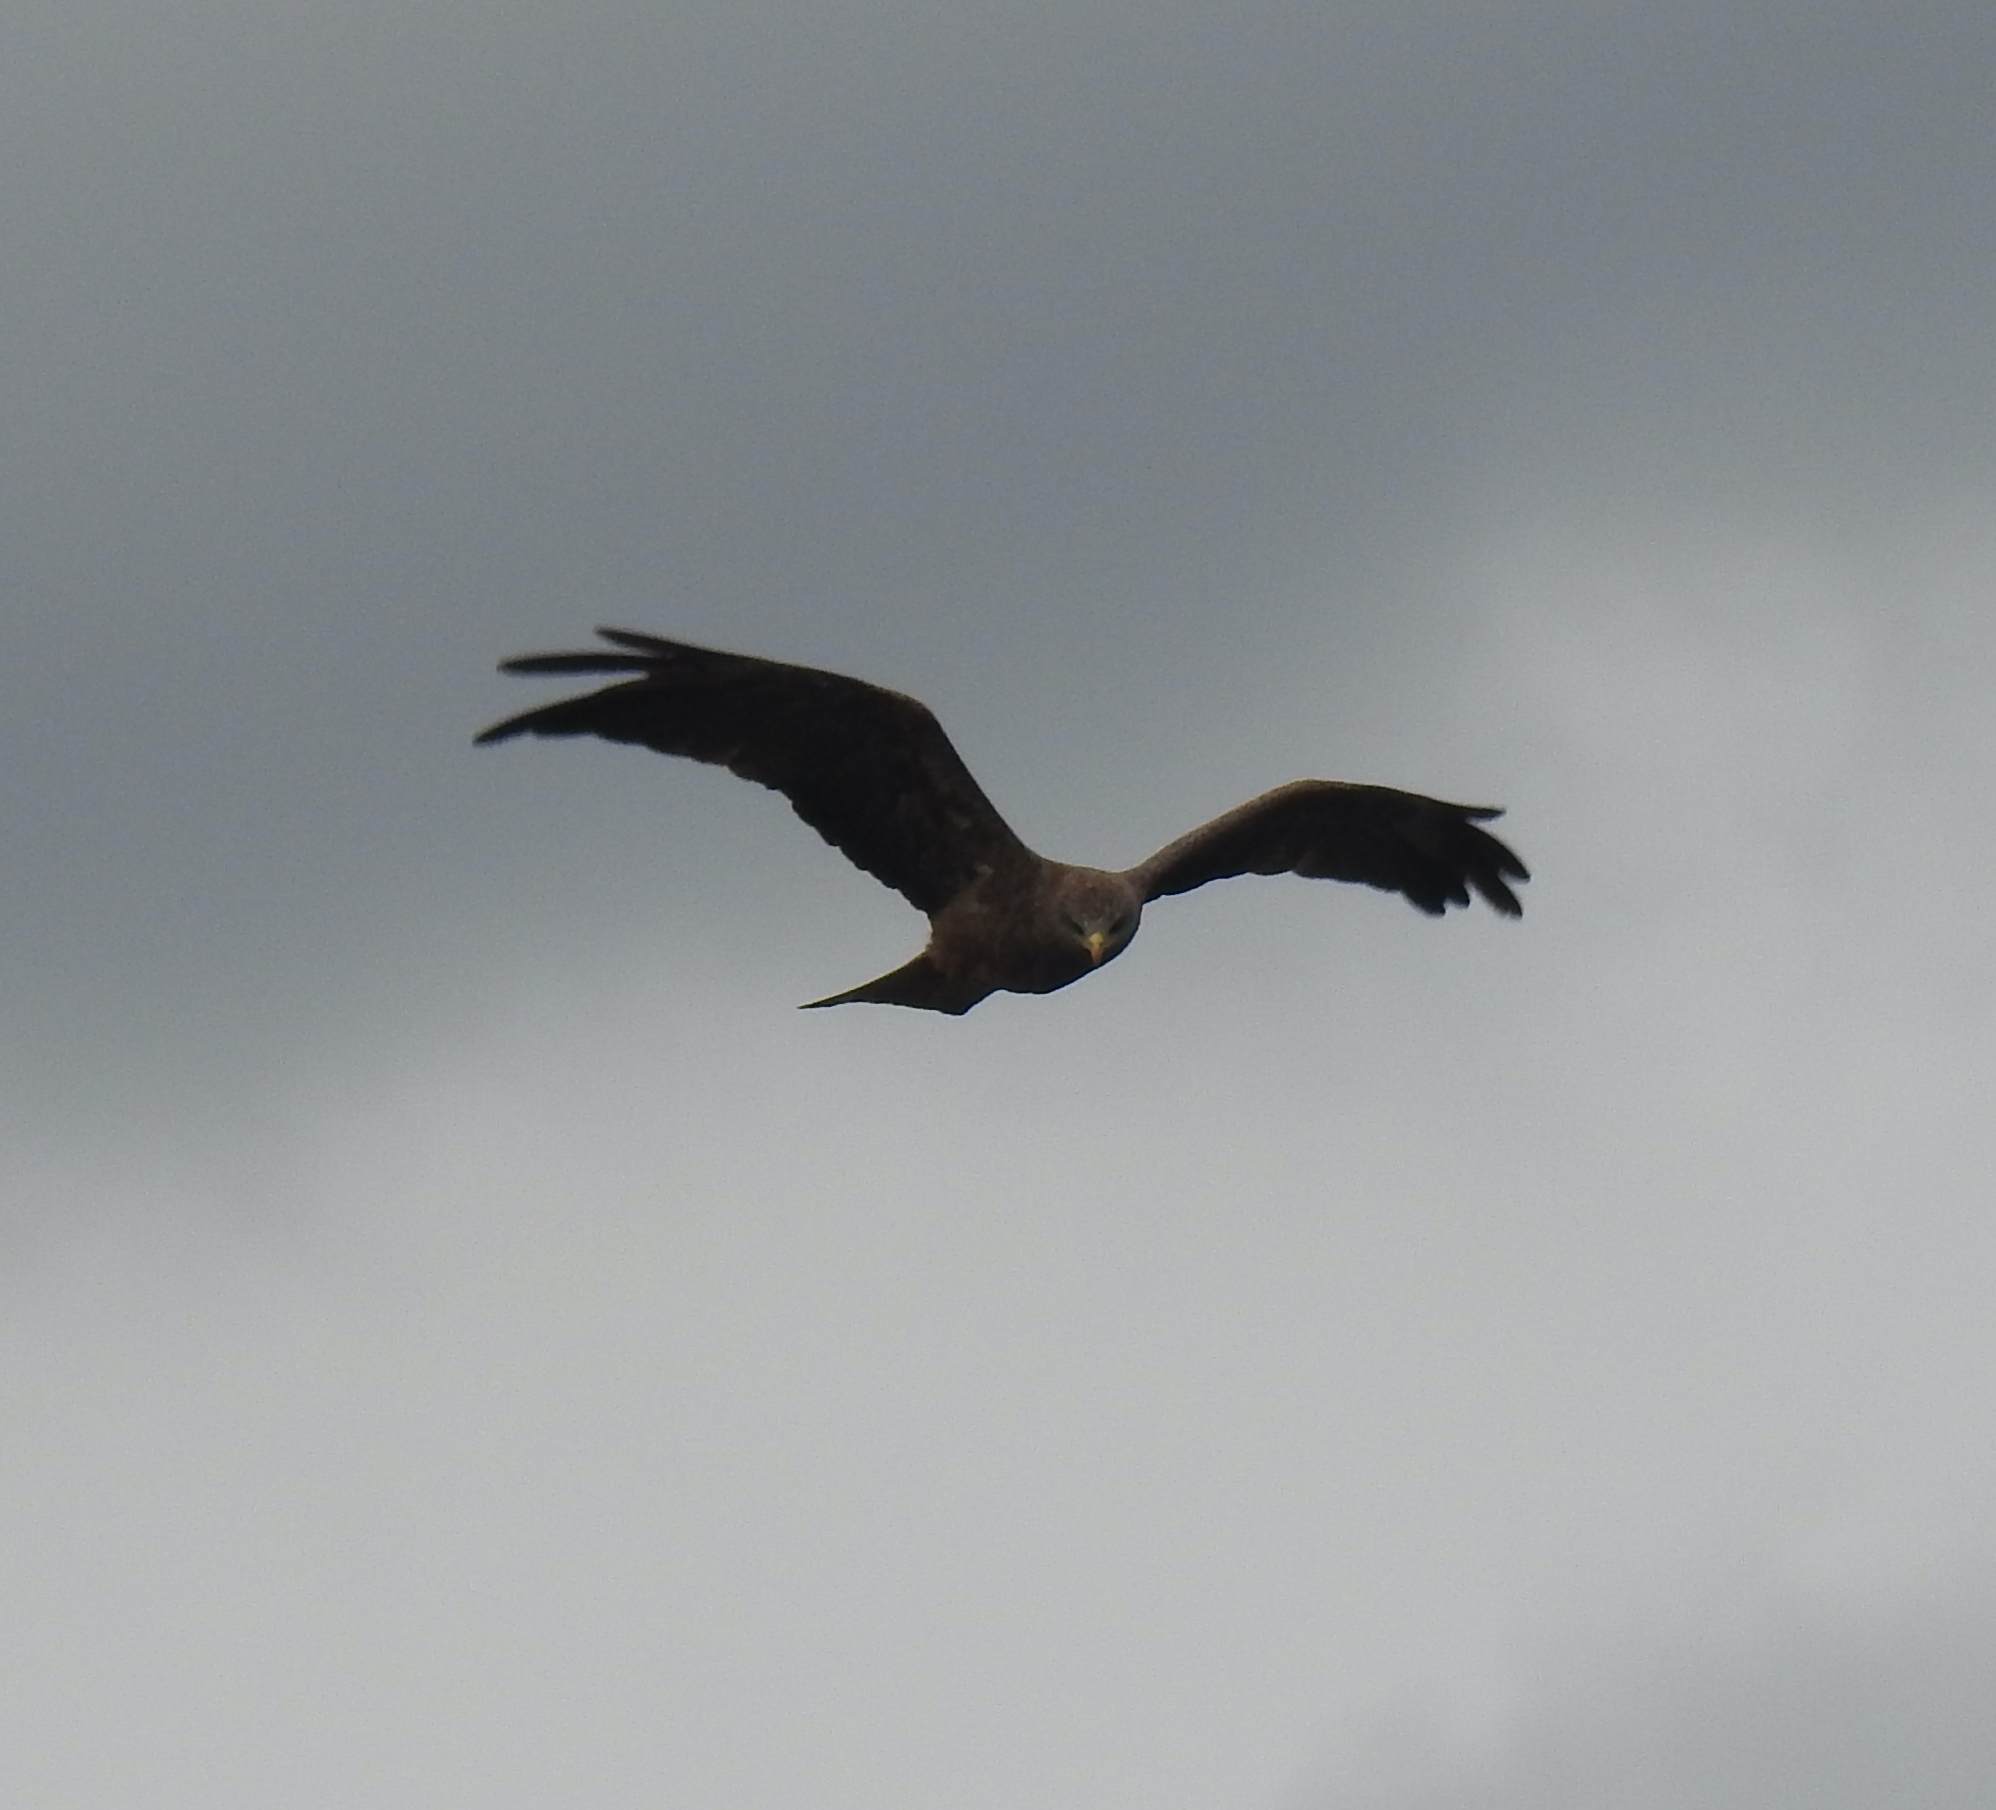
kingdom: Animalia
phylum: Chordata
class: Aves
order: Accipitriformes
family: Accipitridae
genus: Milvus
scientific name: Milvus migrans
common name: Black kite
